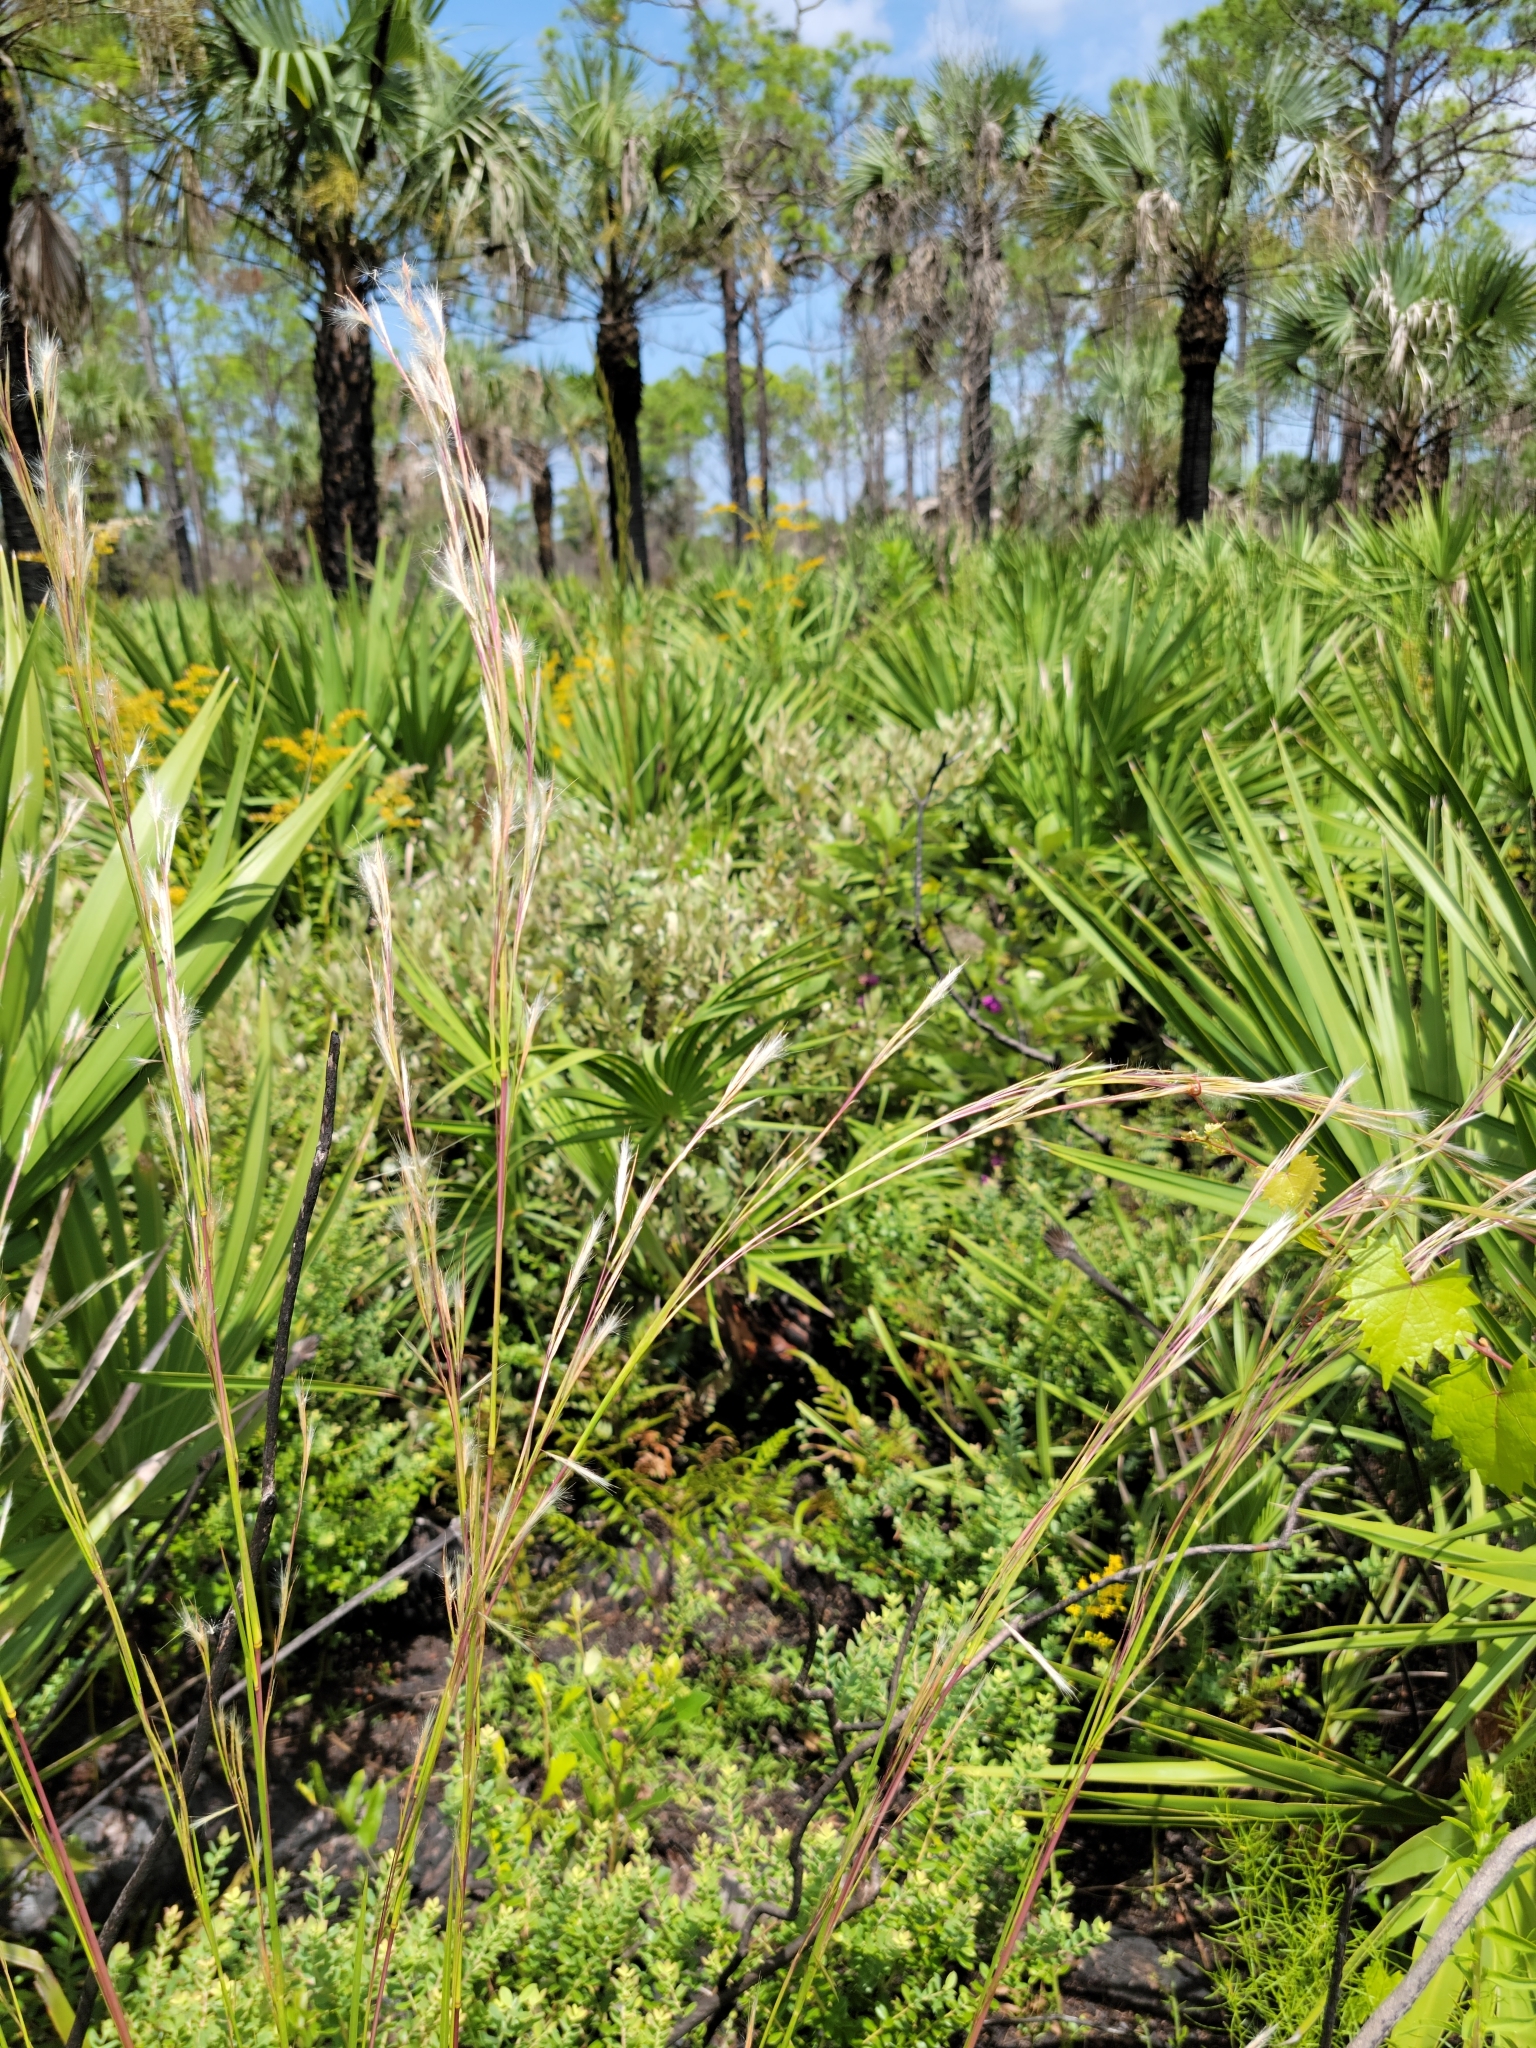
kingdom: Plantae
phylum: Tracheophyta
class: Liliopsida
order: Poales
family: Poaceae
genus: Andropogon
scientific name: Andropogon virginicus
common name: Broomsedge bluestem
